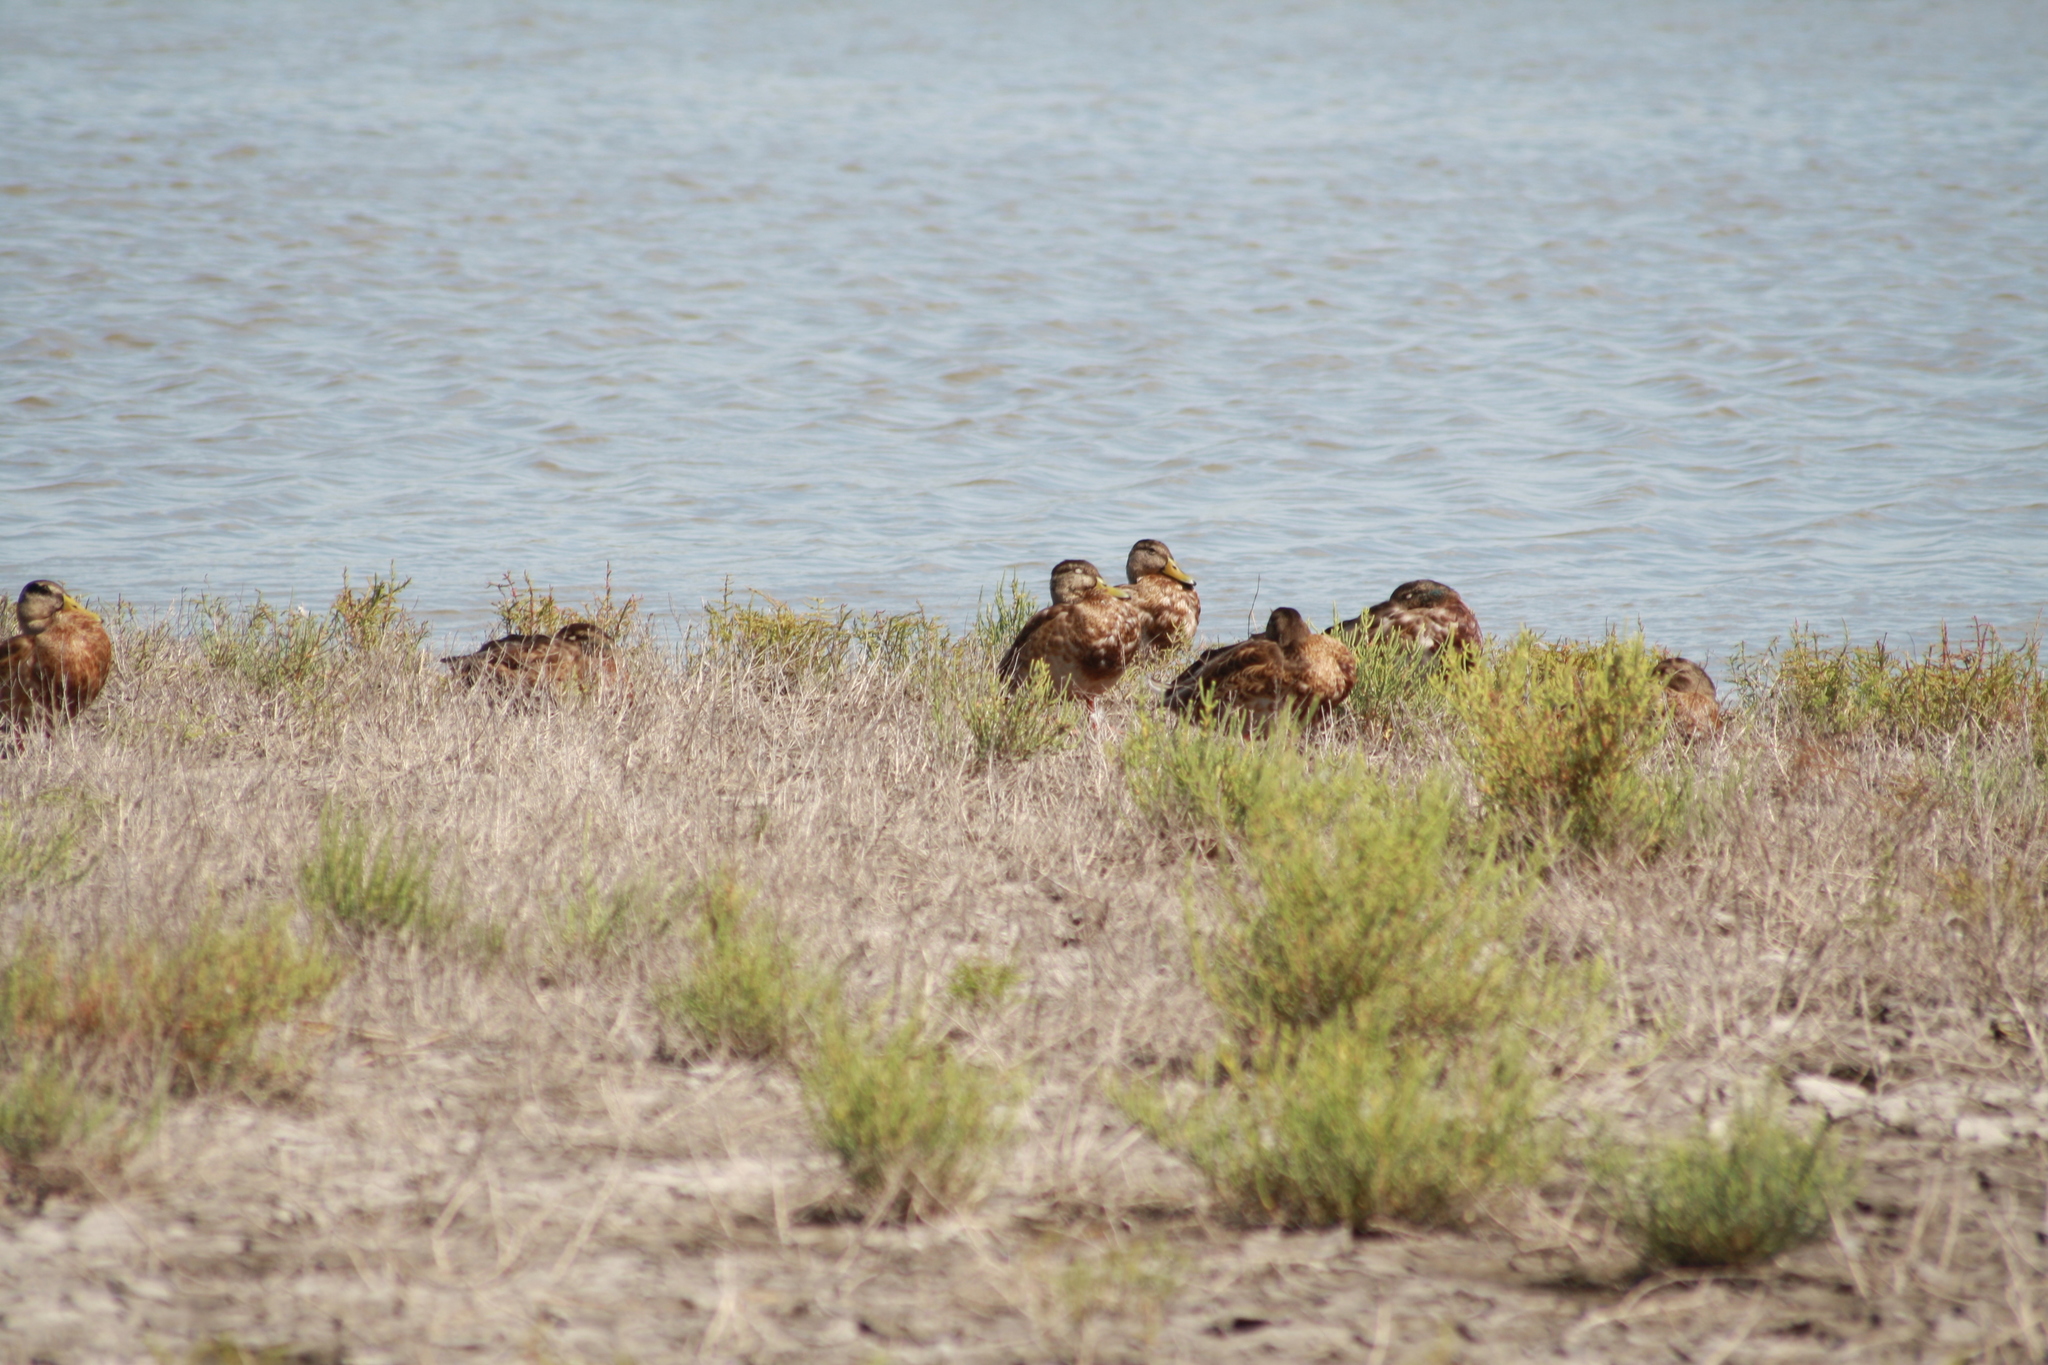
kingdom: Animalia
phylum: Chordata
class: Aves
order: Anseriformes
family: Anatidae
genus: Anas
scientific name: Anas platyrhynchos
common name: Mallard
